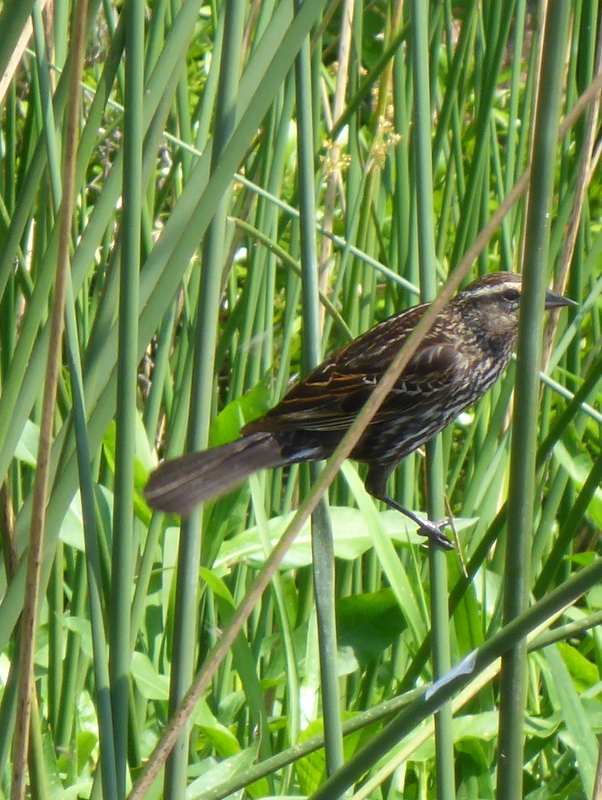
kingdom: Animalia
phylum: Chordata
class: Aves
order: Passeriformes
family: Icteridae
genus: Agelaius
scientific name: Agelaius phoeniceus
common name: Red-winged blackbird
